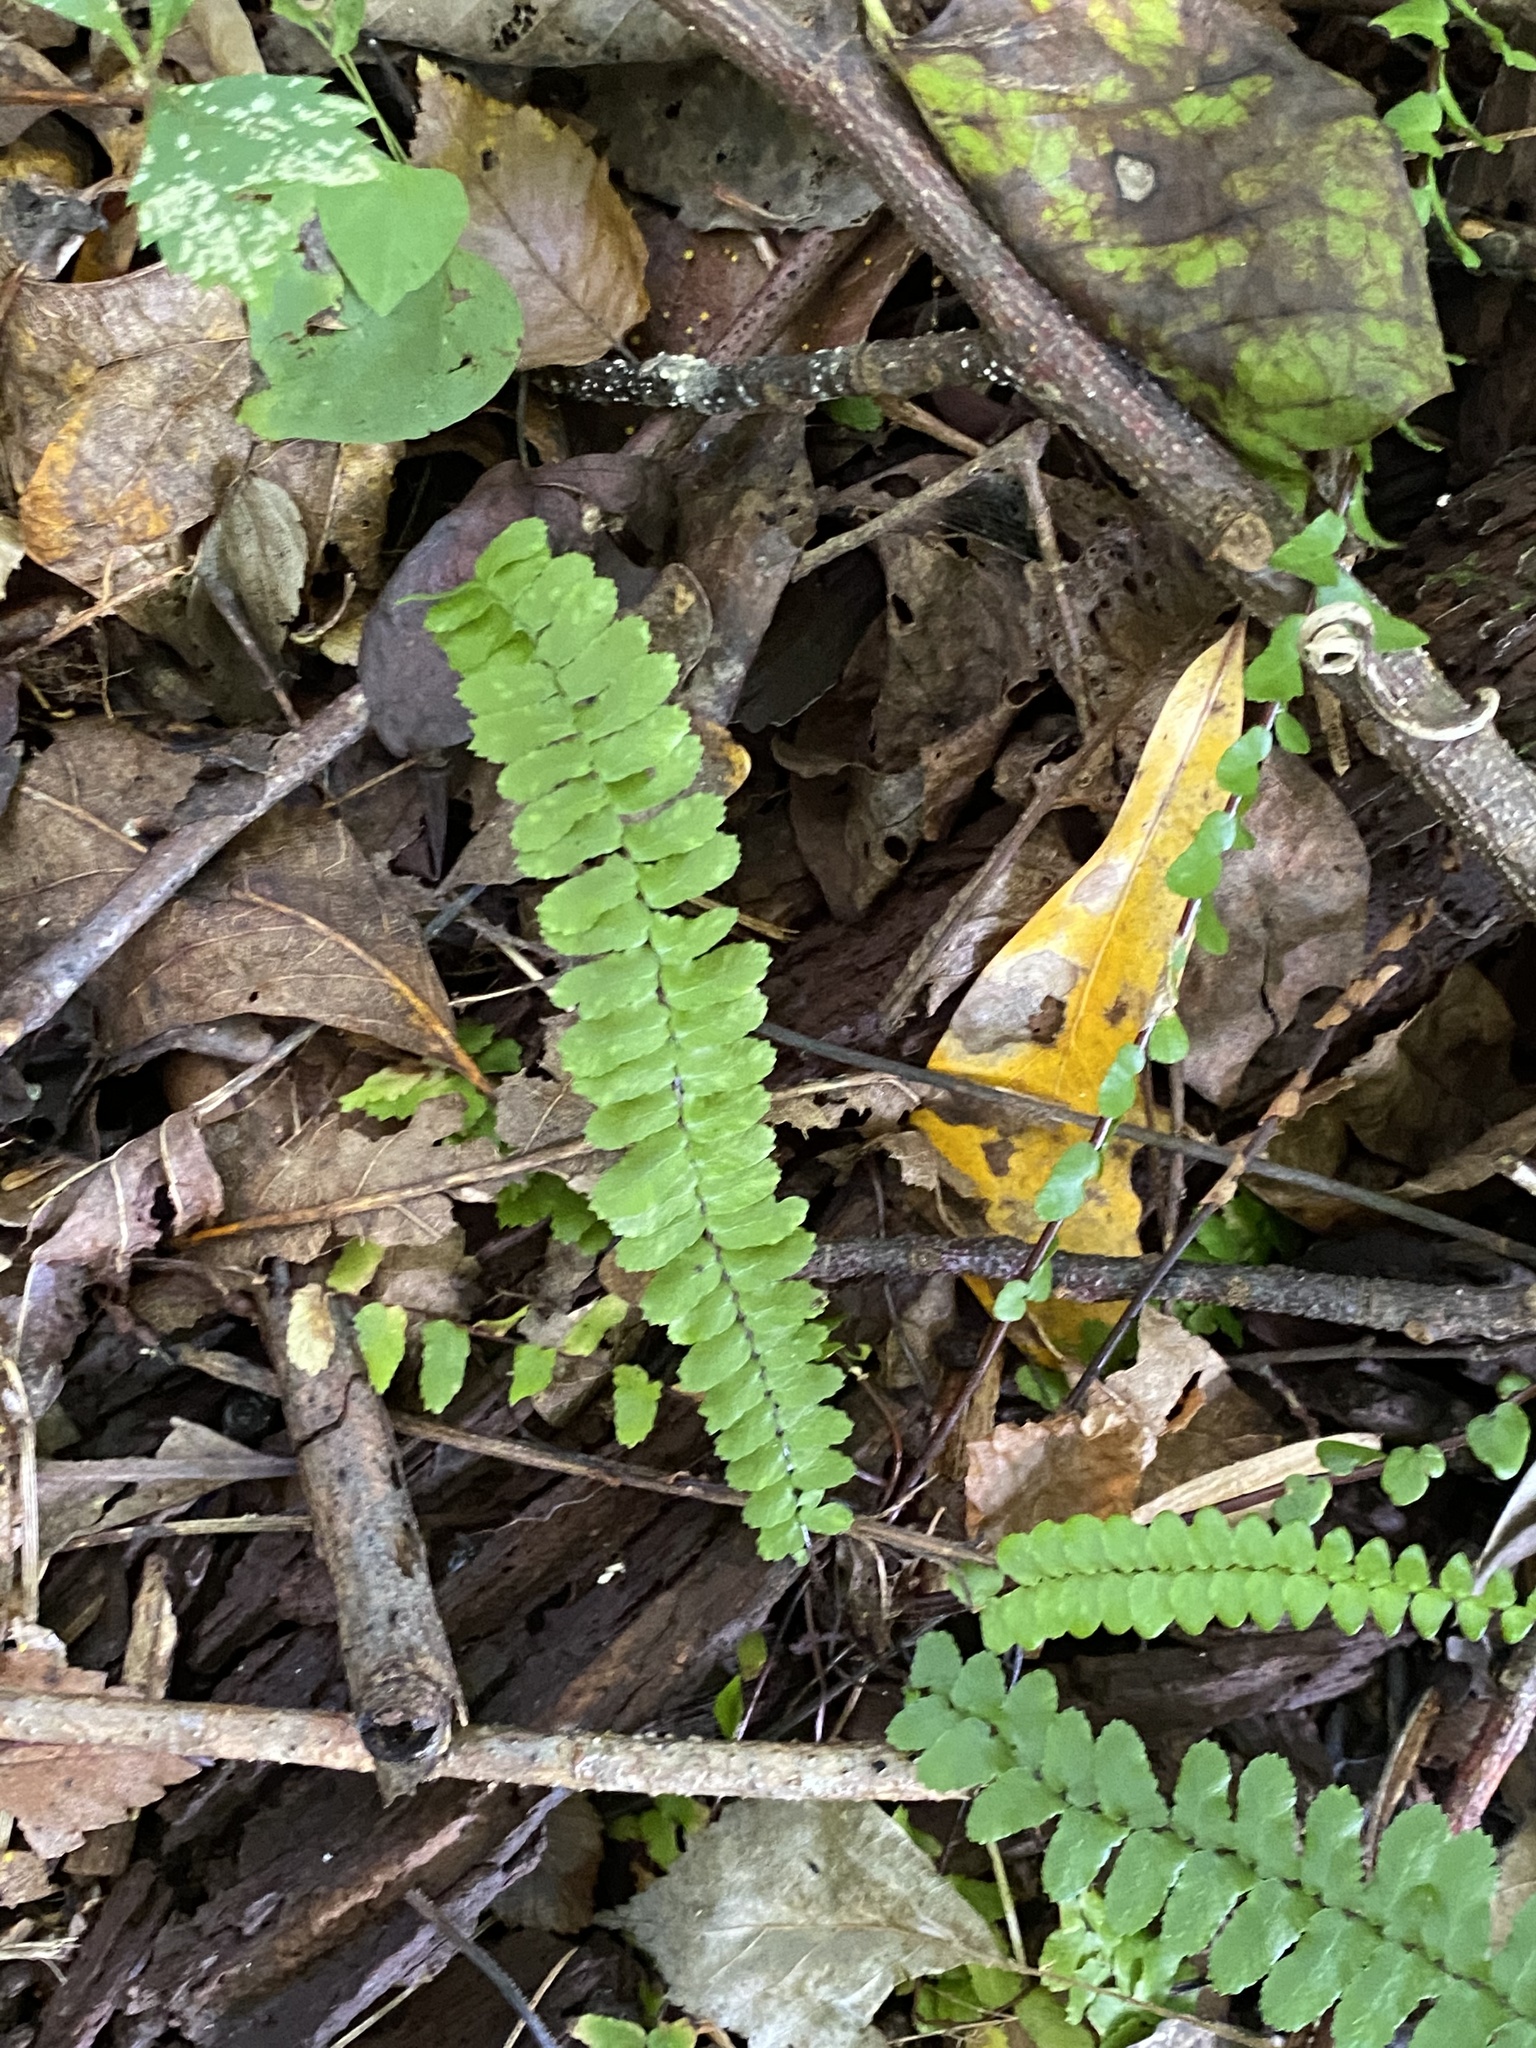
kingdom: Plantae
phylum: Tracheophyta
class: Polypodiopsida
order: Polypodiales
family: Aspleniaceae
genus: Asplenium
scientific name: Asplenium platyneuron
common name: Ebony spleenwort
